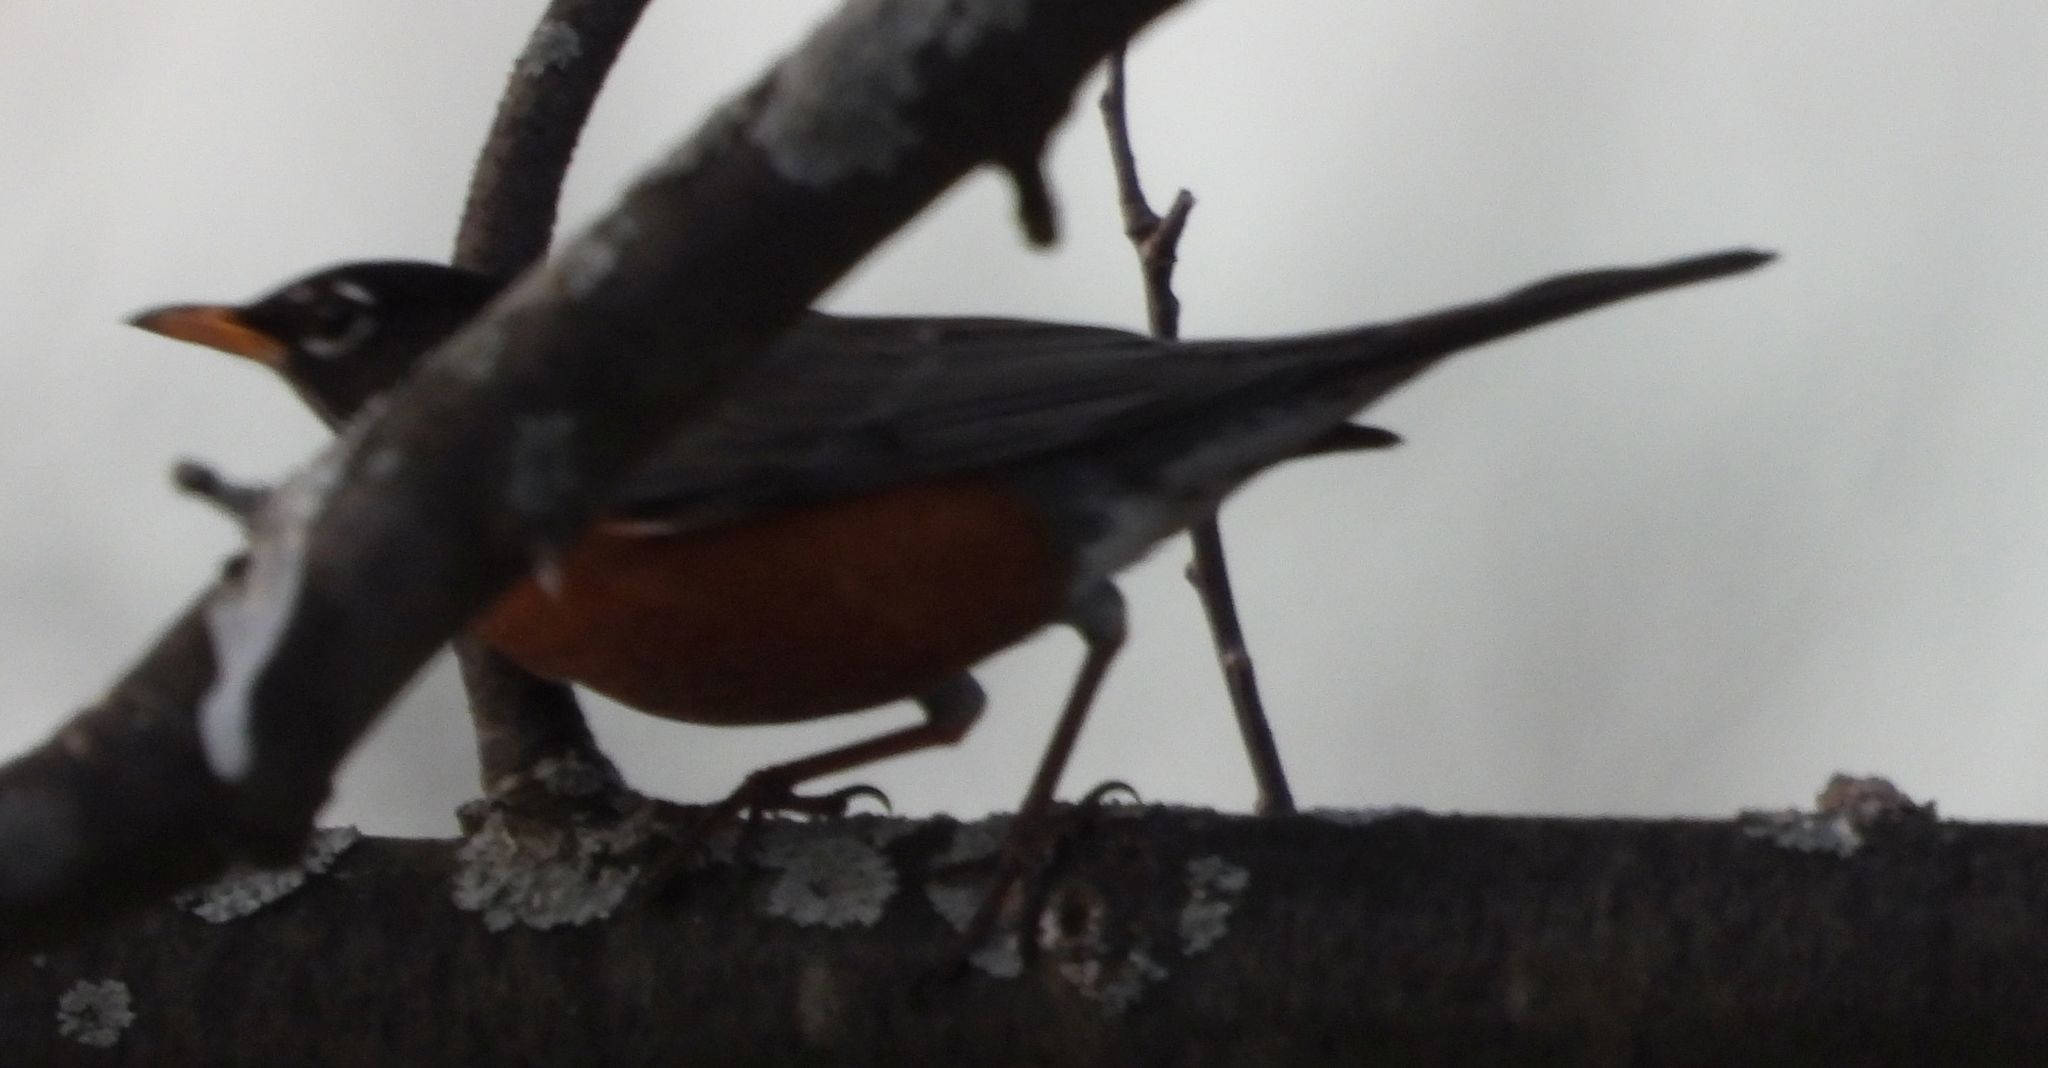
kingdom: Animalia
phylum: Chordata
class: Aves
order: Passeriformes
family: Turdidae
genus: Turdus
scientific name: Turdus migratorius
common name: American robin
